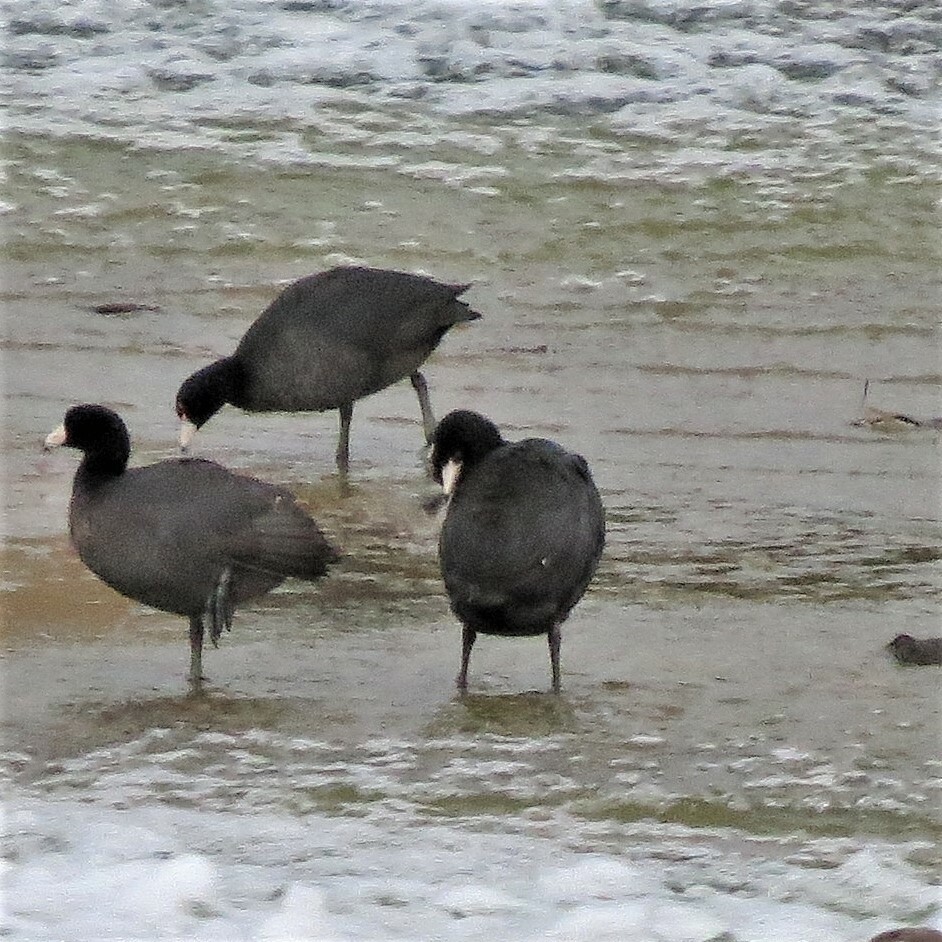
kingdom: Animalia
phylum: Chordata
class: Aves
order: Gruiformes
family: Rallidae
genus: Fulica
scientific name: Fulica americana
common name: American coot
